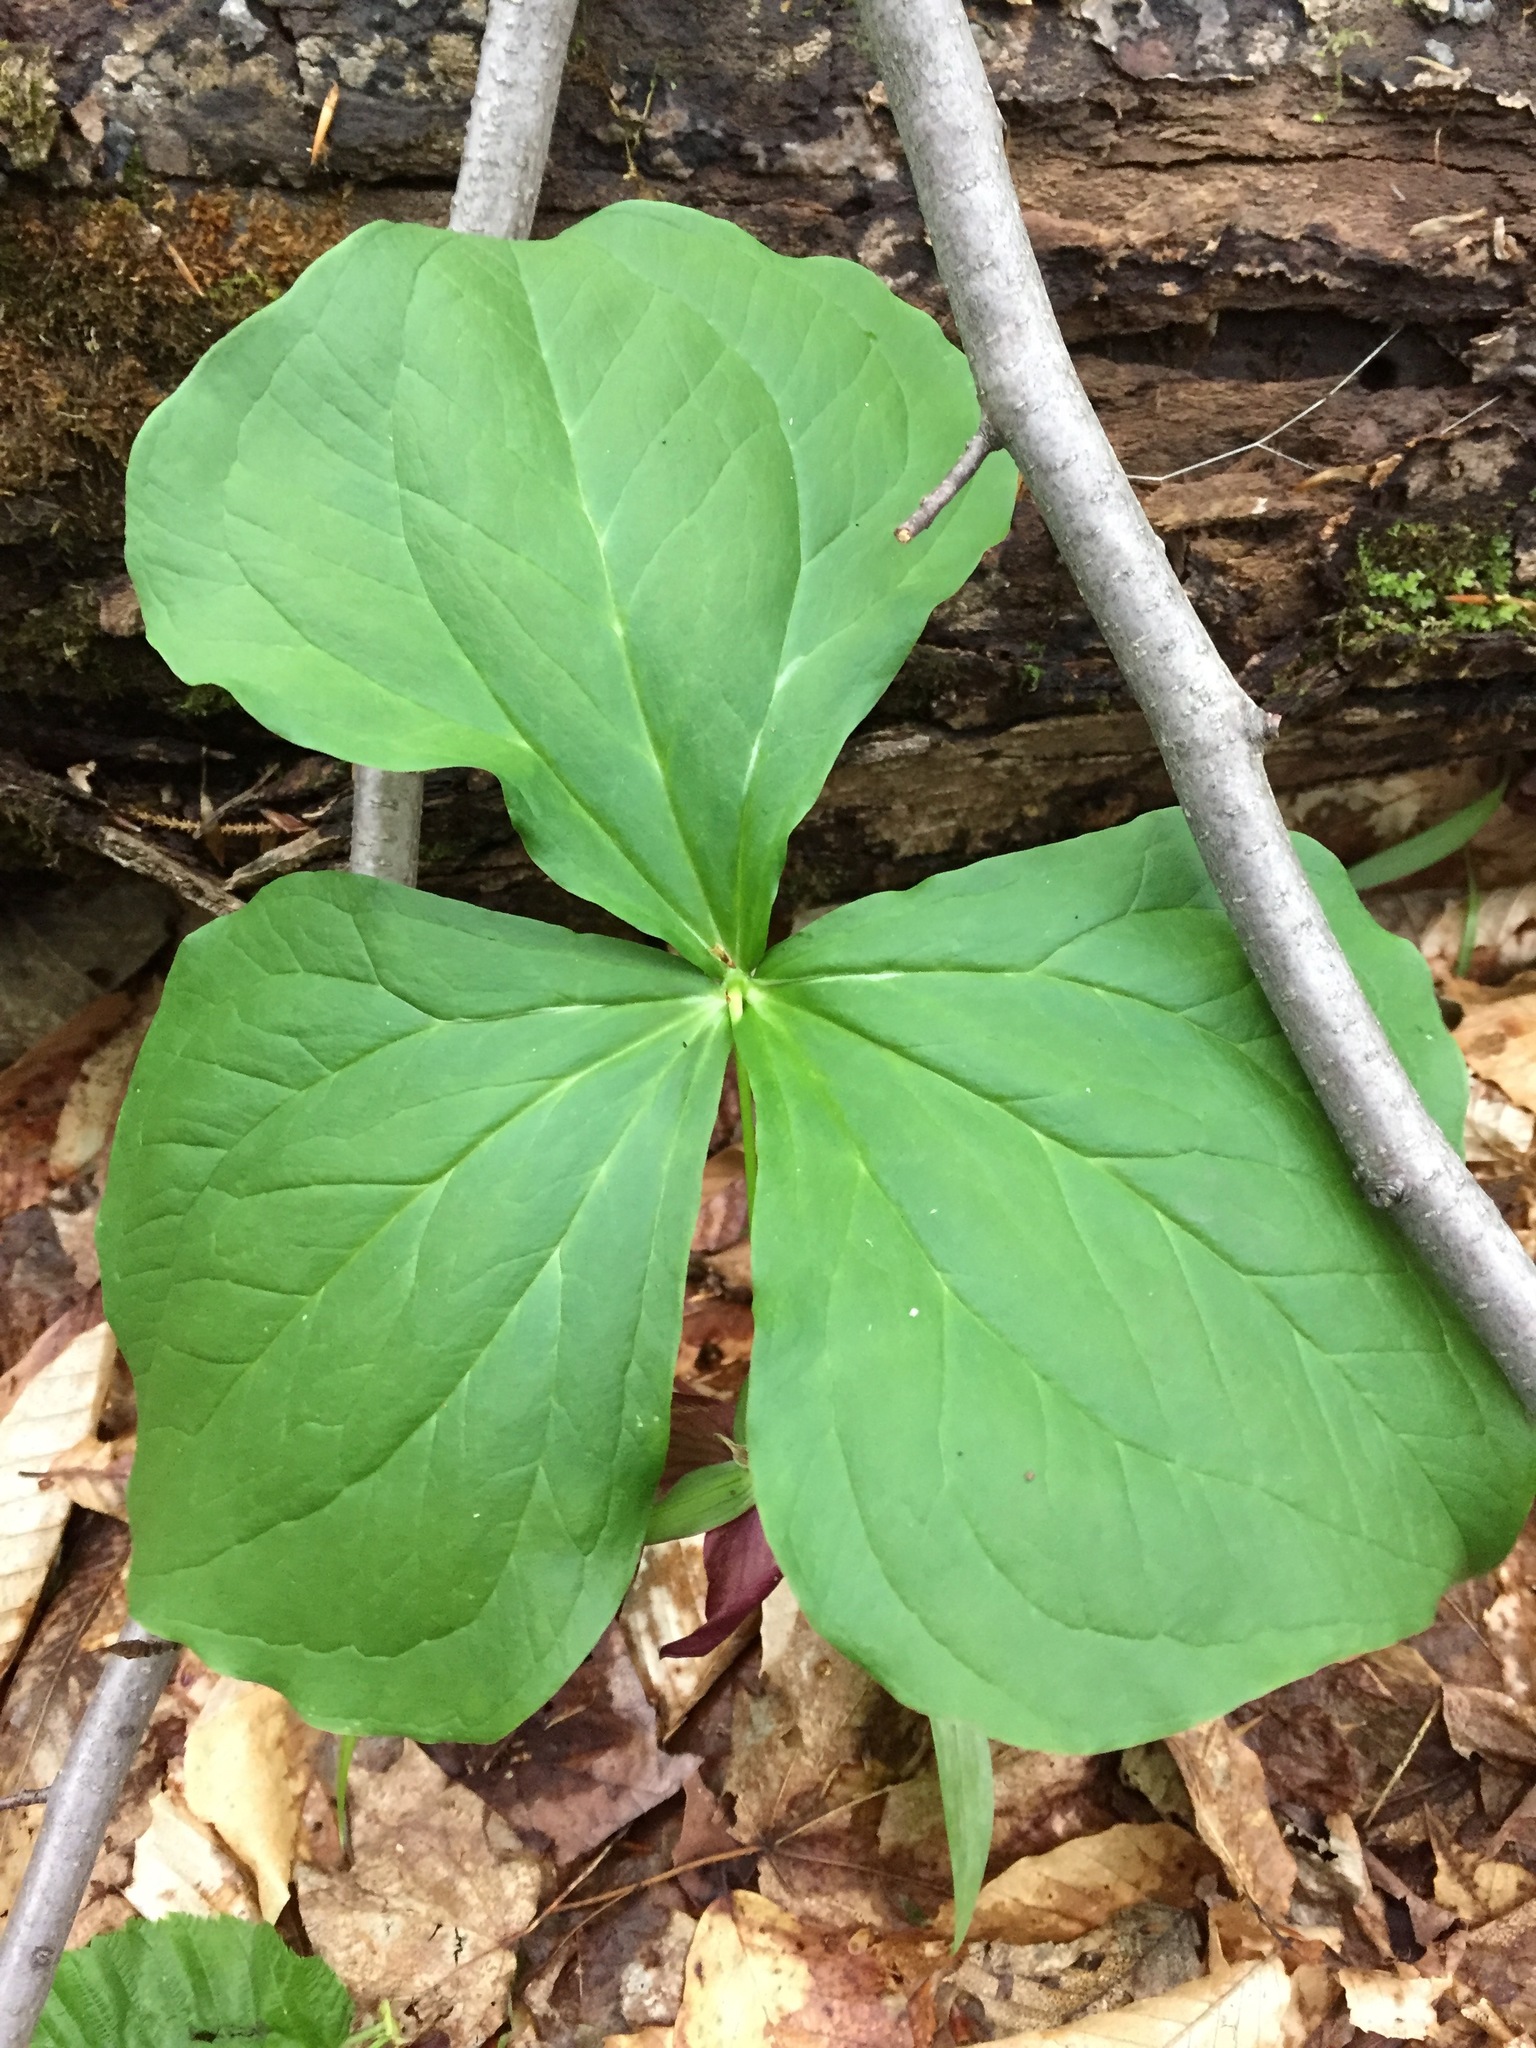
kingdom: Plantae
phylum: Tracheophyta
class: Liliopsida
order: Liliales
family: Melanthiaceae
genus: Trillium
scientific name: Trillium erectum
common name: Purple trillium
